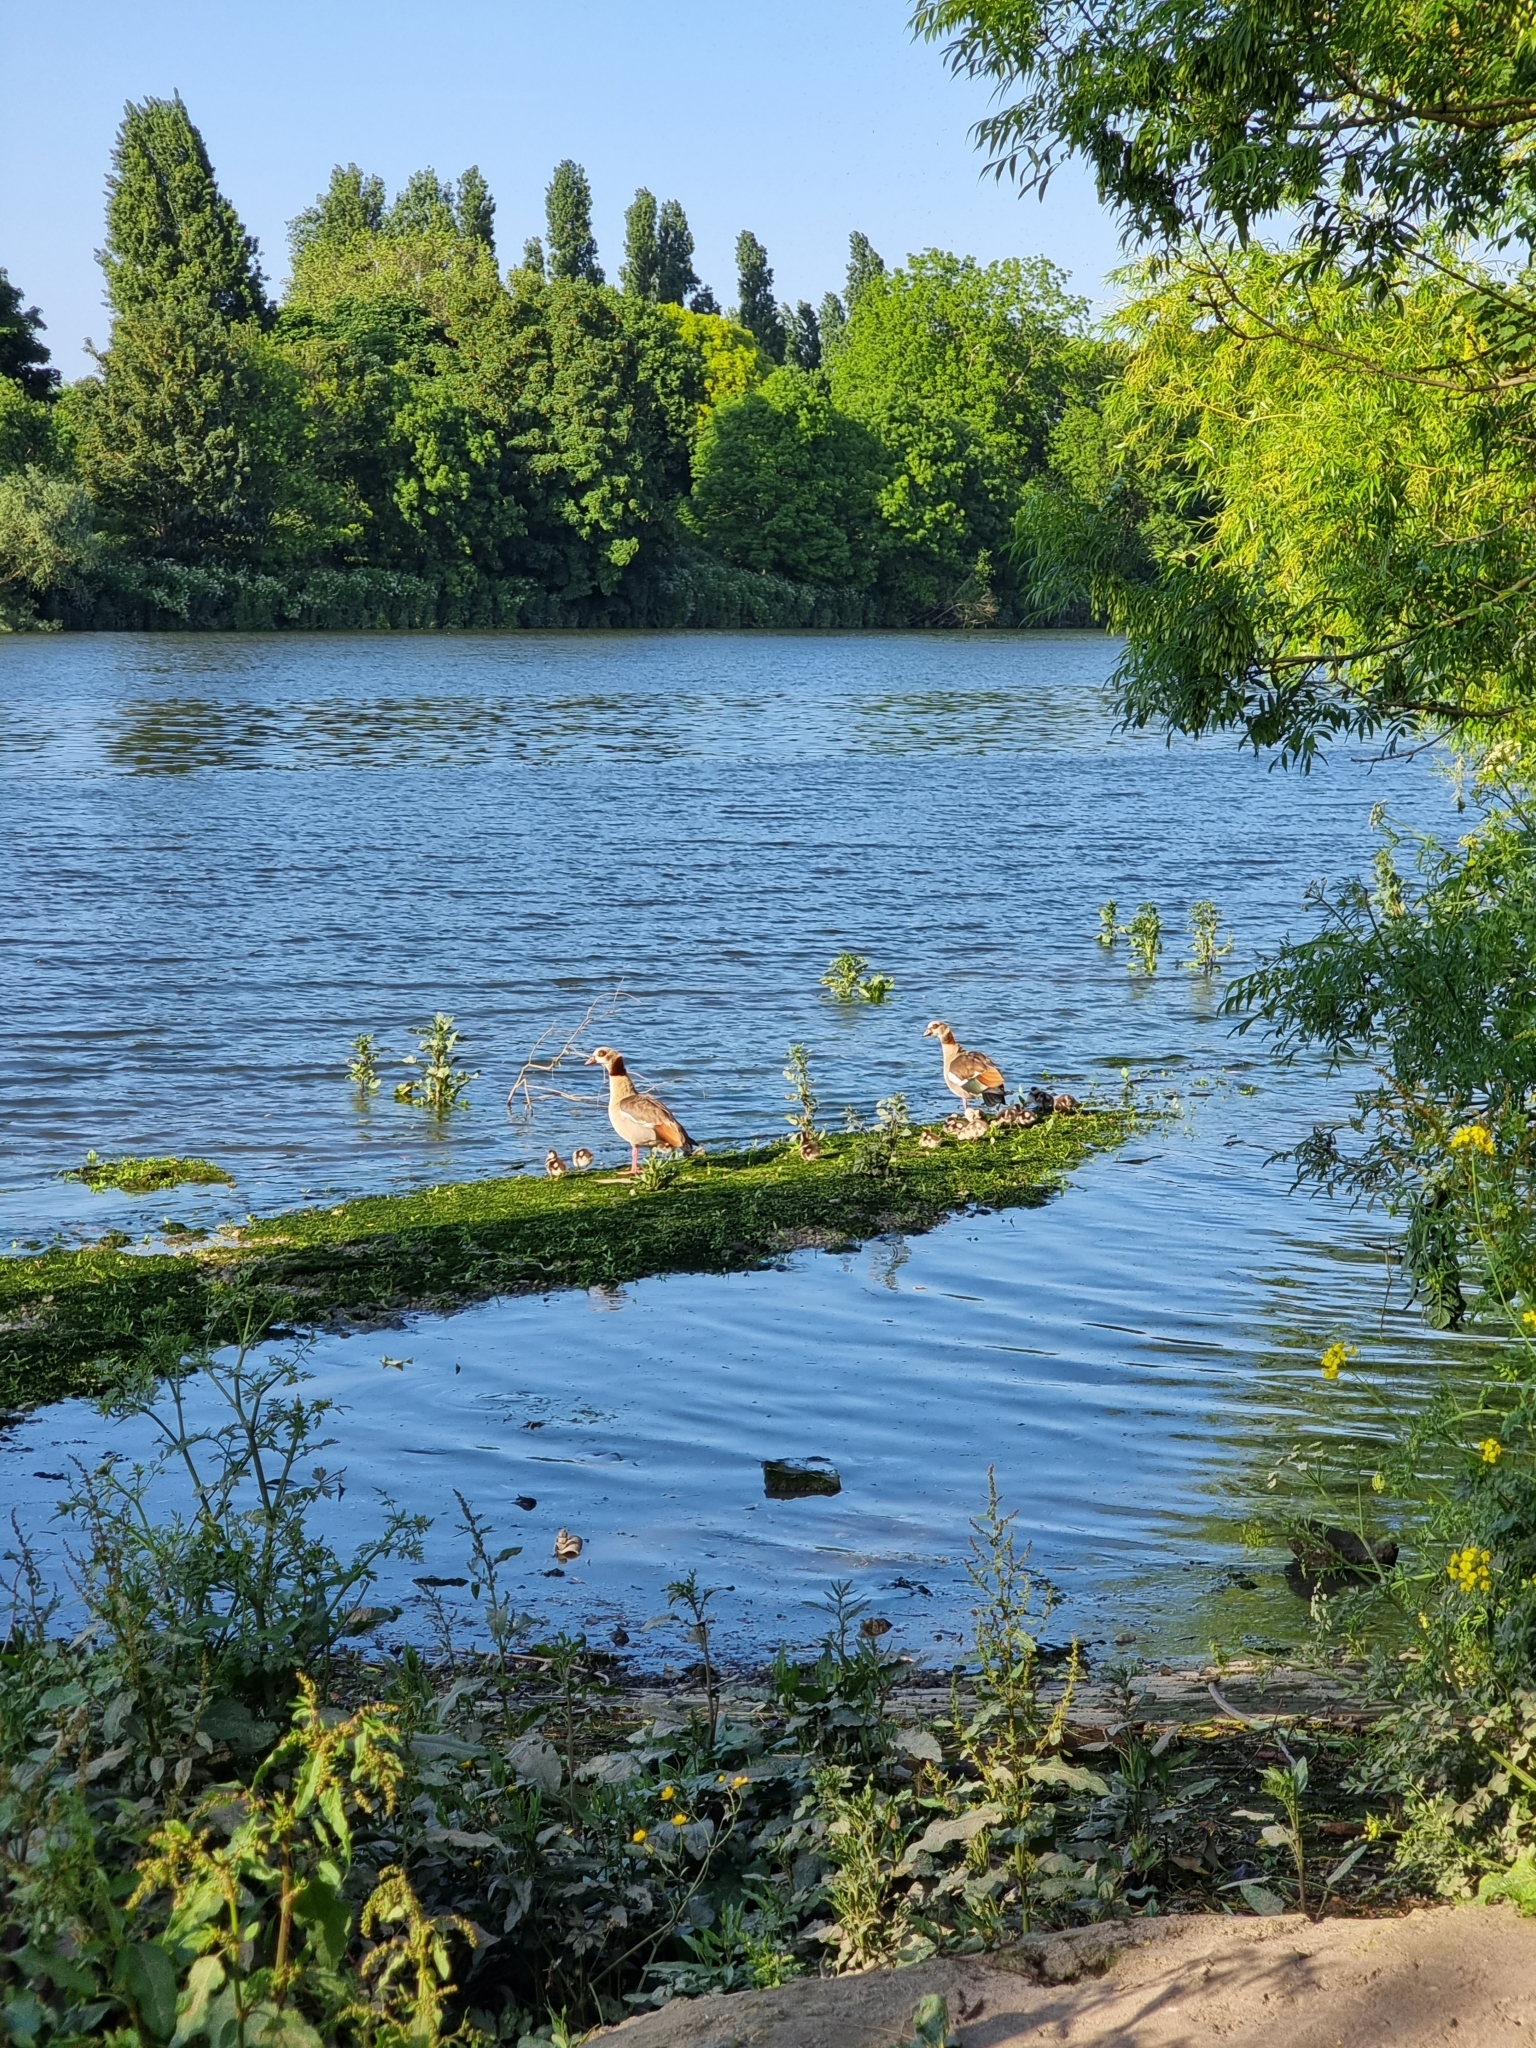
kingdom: Animalia
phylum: Chordata
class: Aves
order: Anseriformes
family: Anatidae
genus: Alopochen
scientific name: Alopochen aegyptiaca
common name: Egyptian goose
